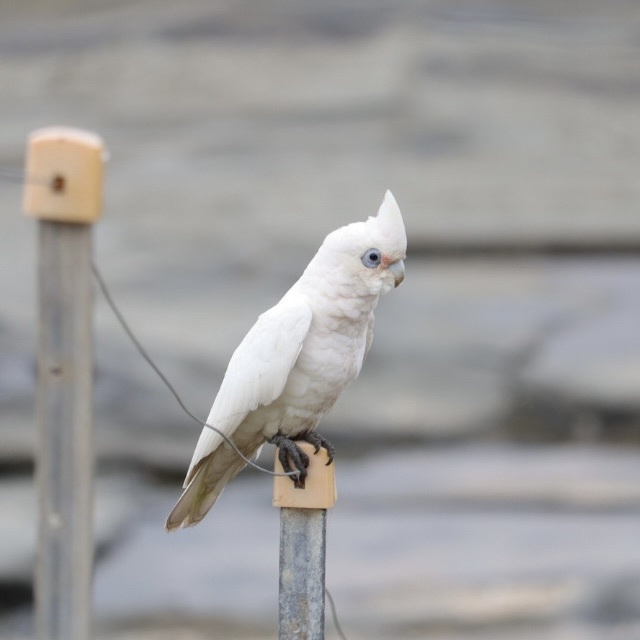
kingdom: Animalia
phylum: Chordata
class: Aves
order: Psittaciformes
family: Psittacidae
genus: Cacatua
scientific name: Cacatua sanguinea
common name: Little corella
